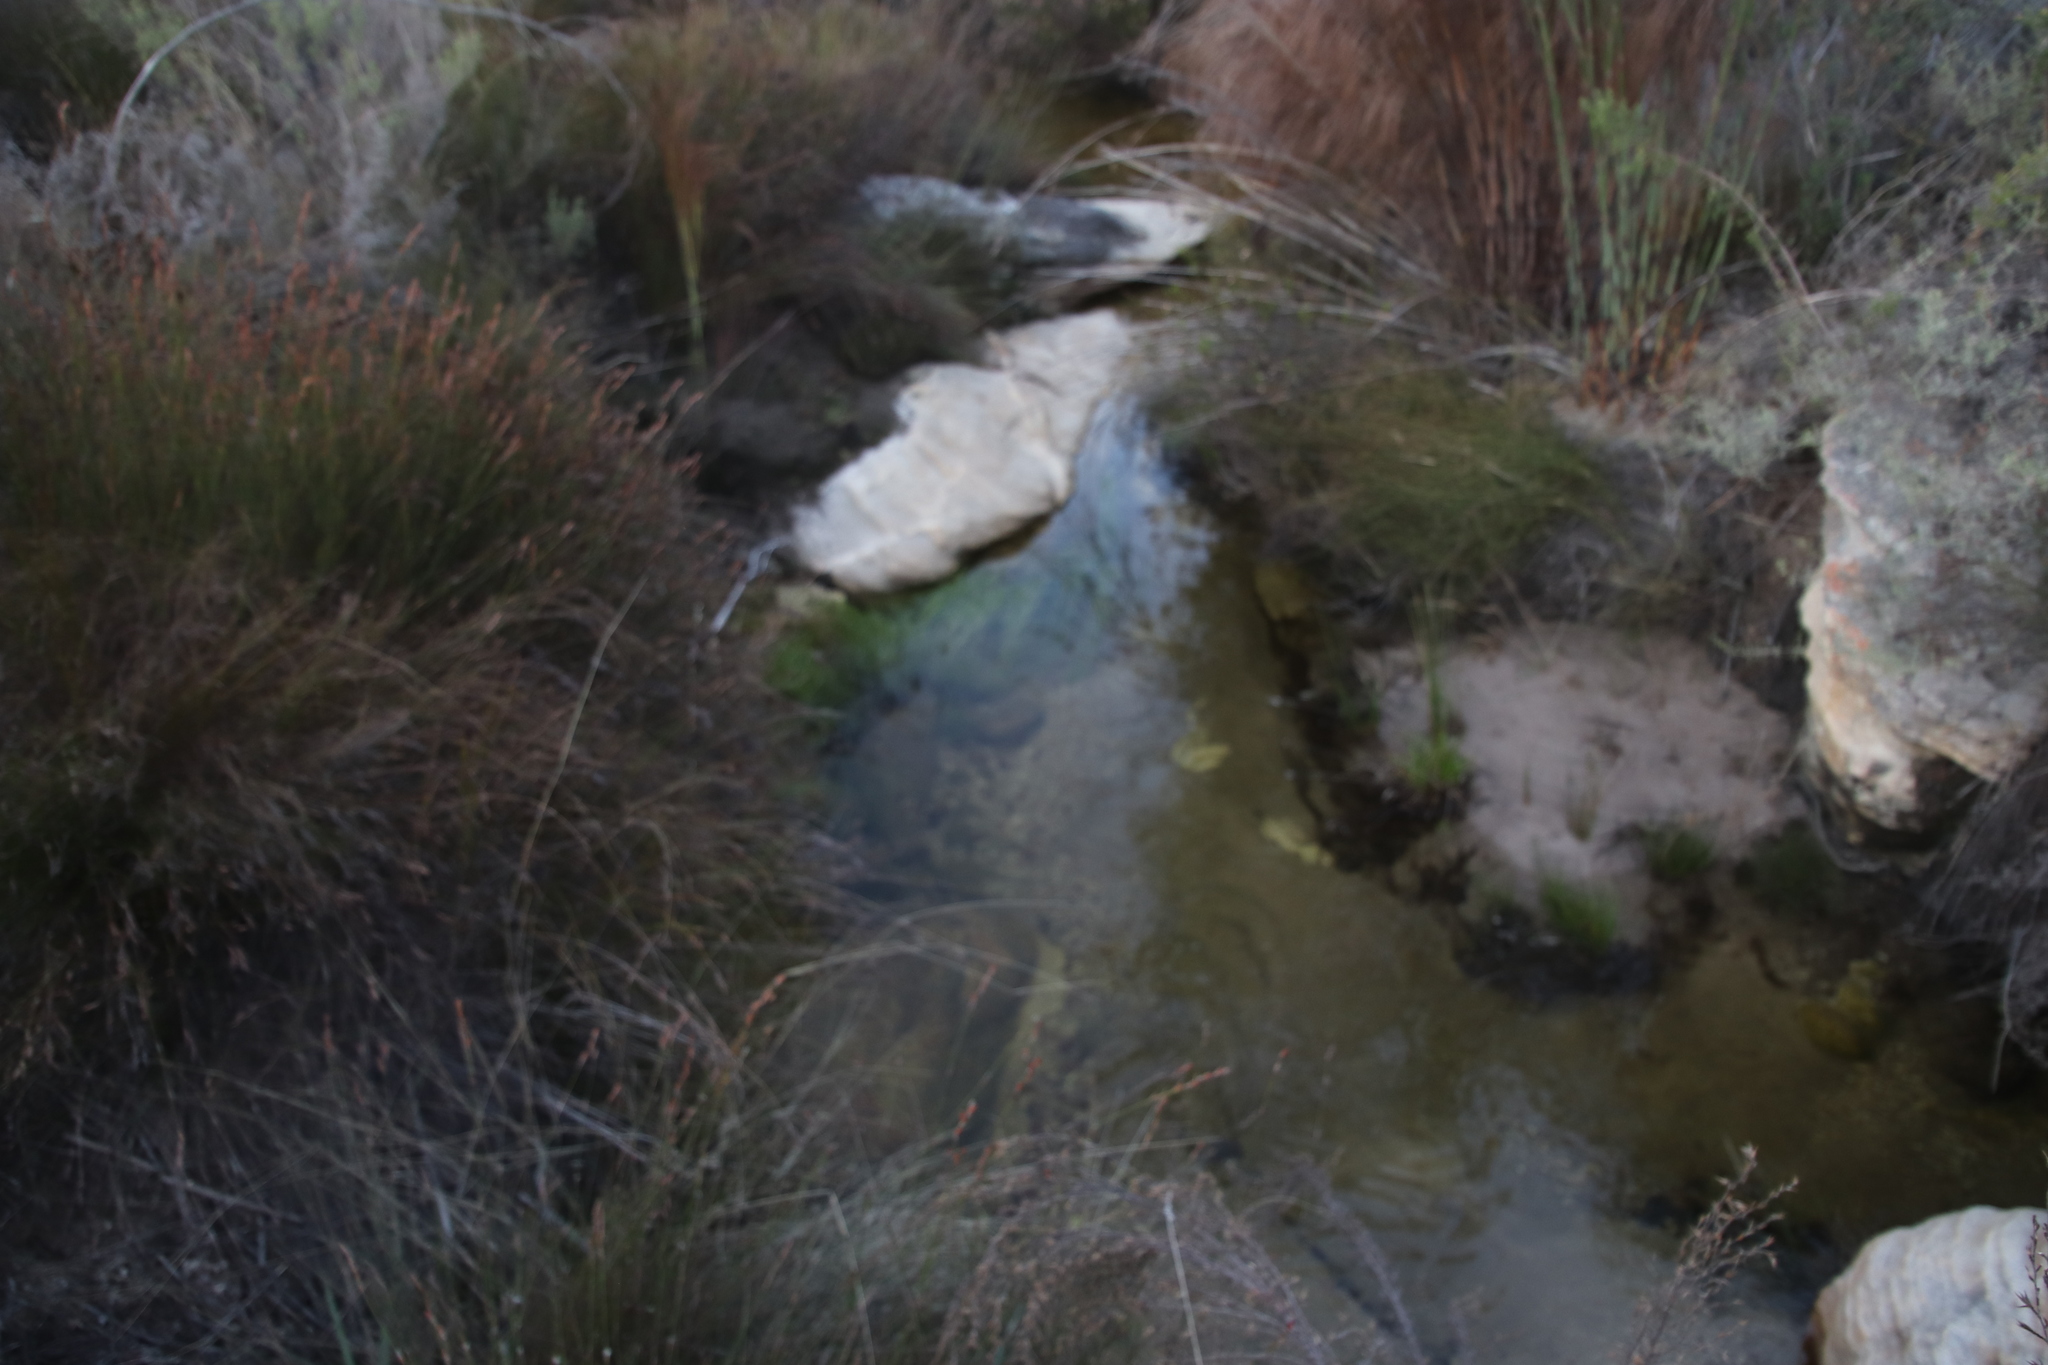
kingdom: Plantae
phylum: Tracheophyta
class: Liliopsida
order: Poales
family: Cyperaceae
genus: Isolepis
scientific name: Isolepis digitata
